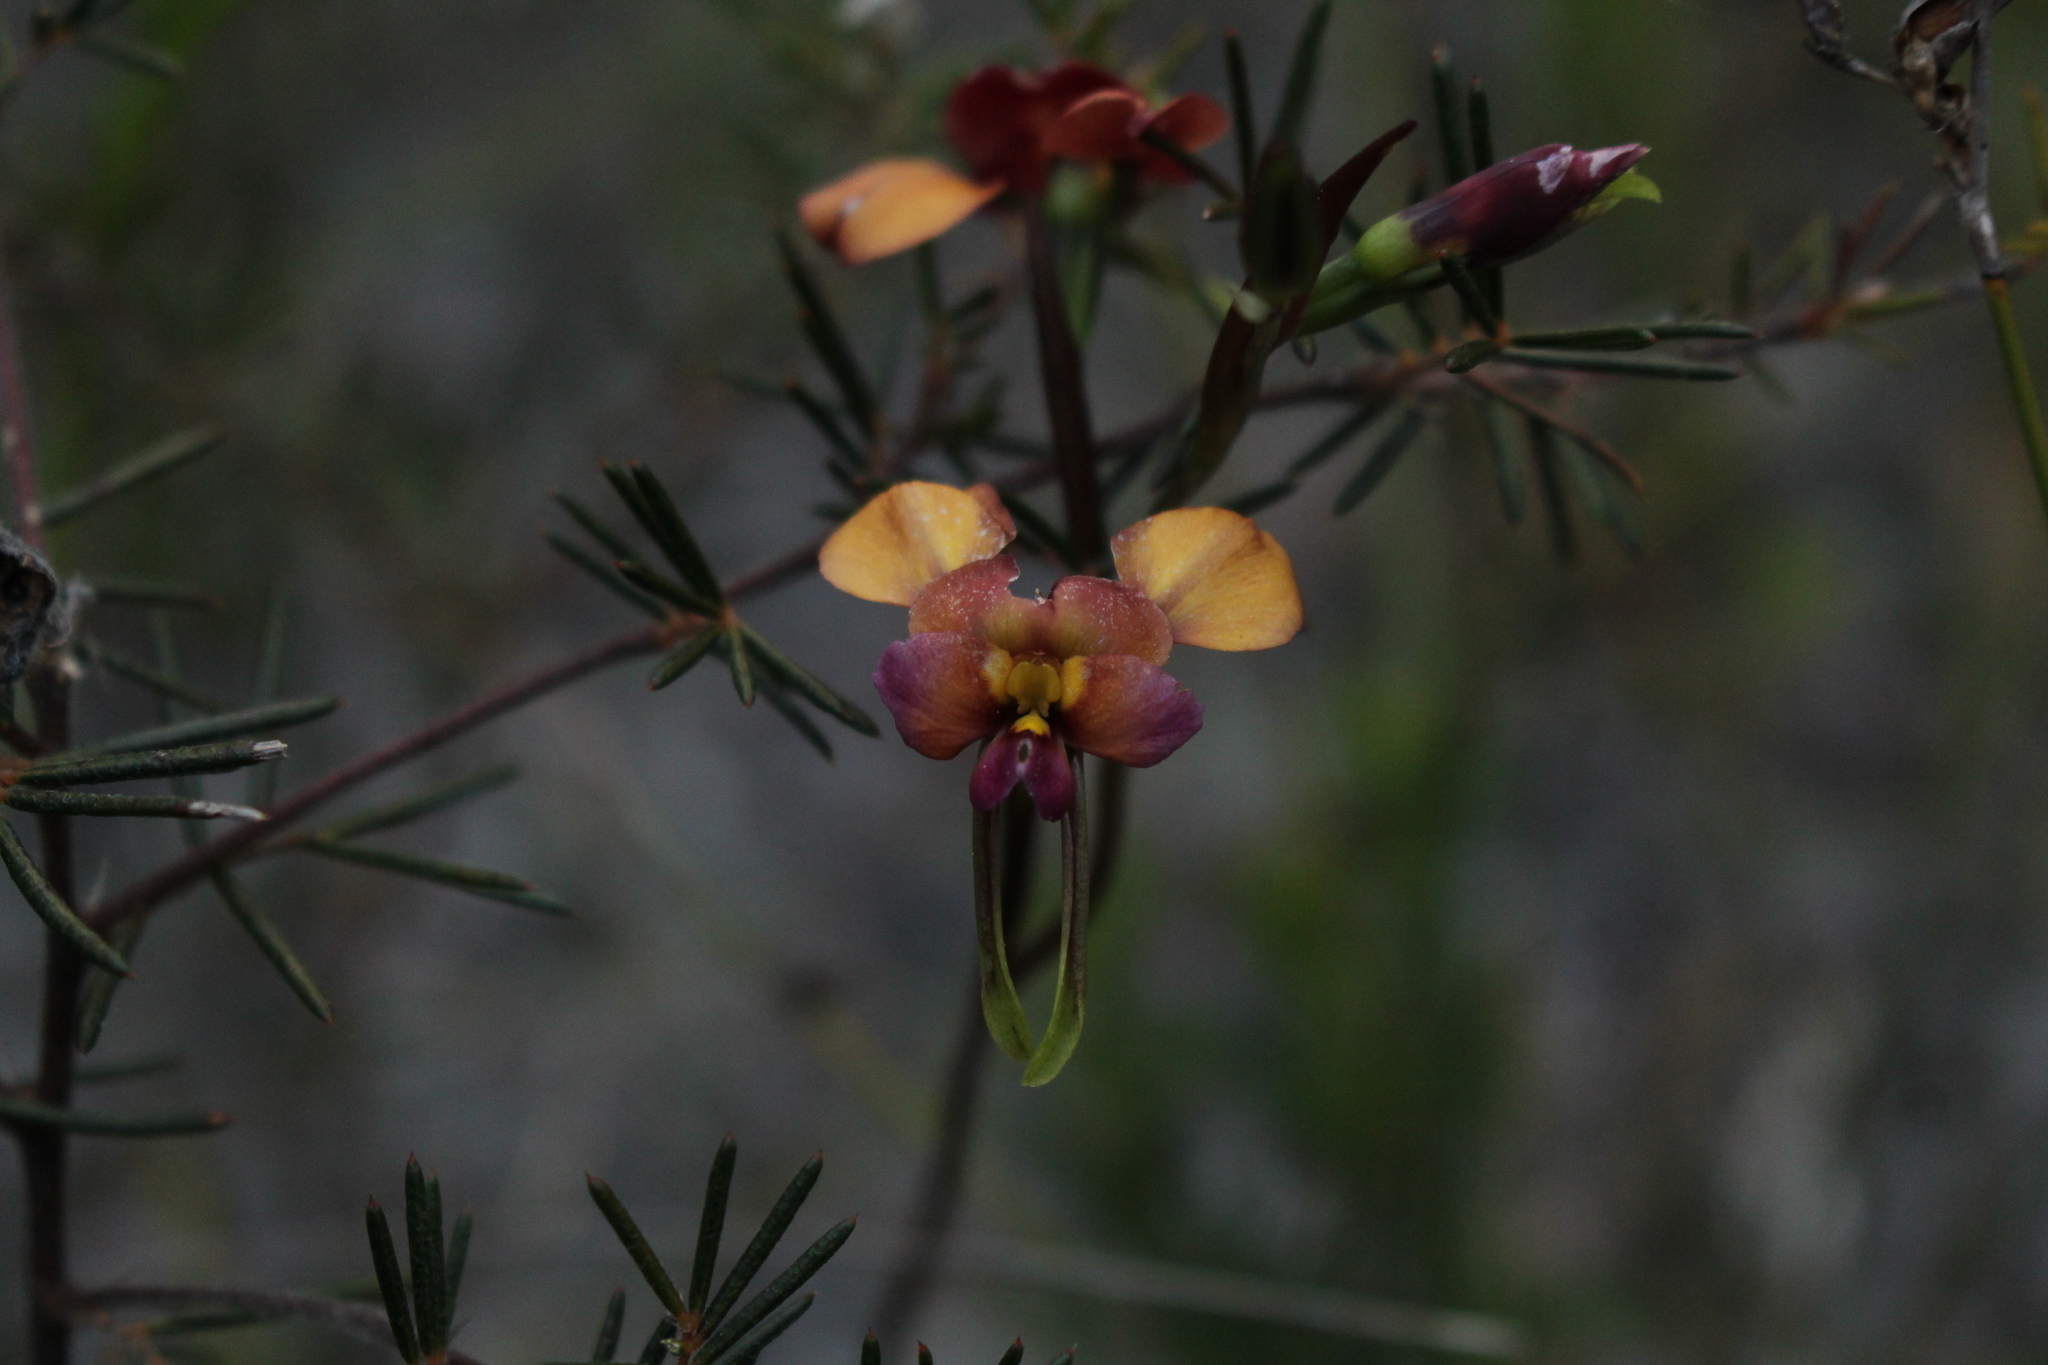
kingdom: Plantae
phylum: Tracheophyta
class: Liliopsida
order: Asparagales
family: Orchidaceae
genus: Diuris
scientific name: Diuris longifolia
